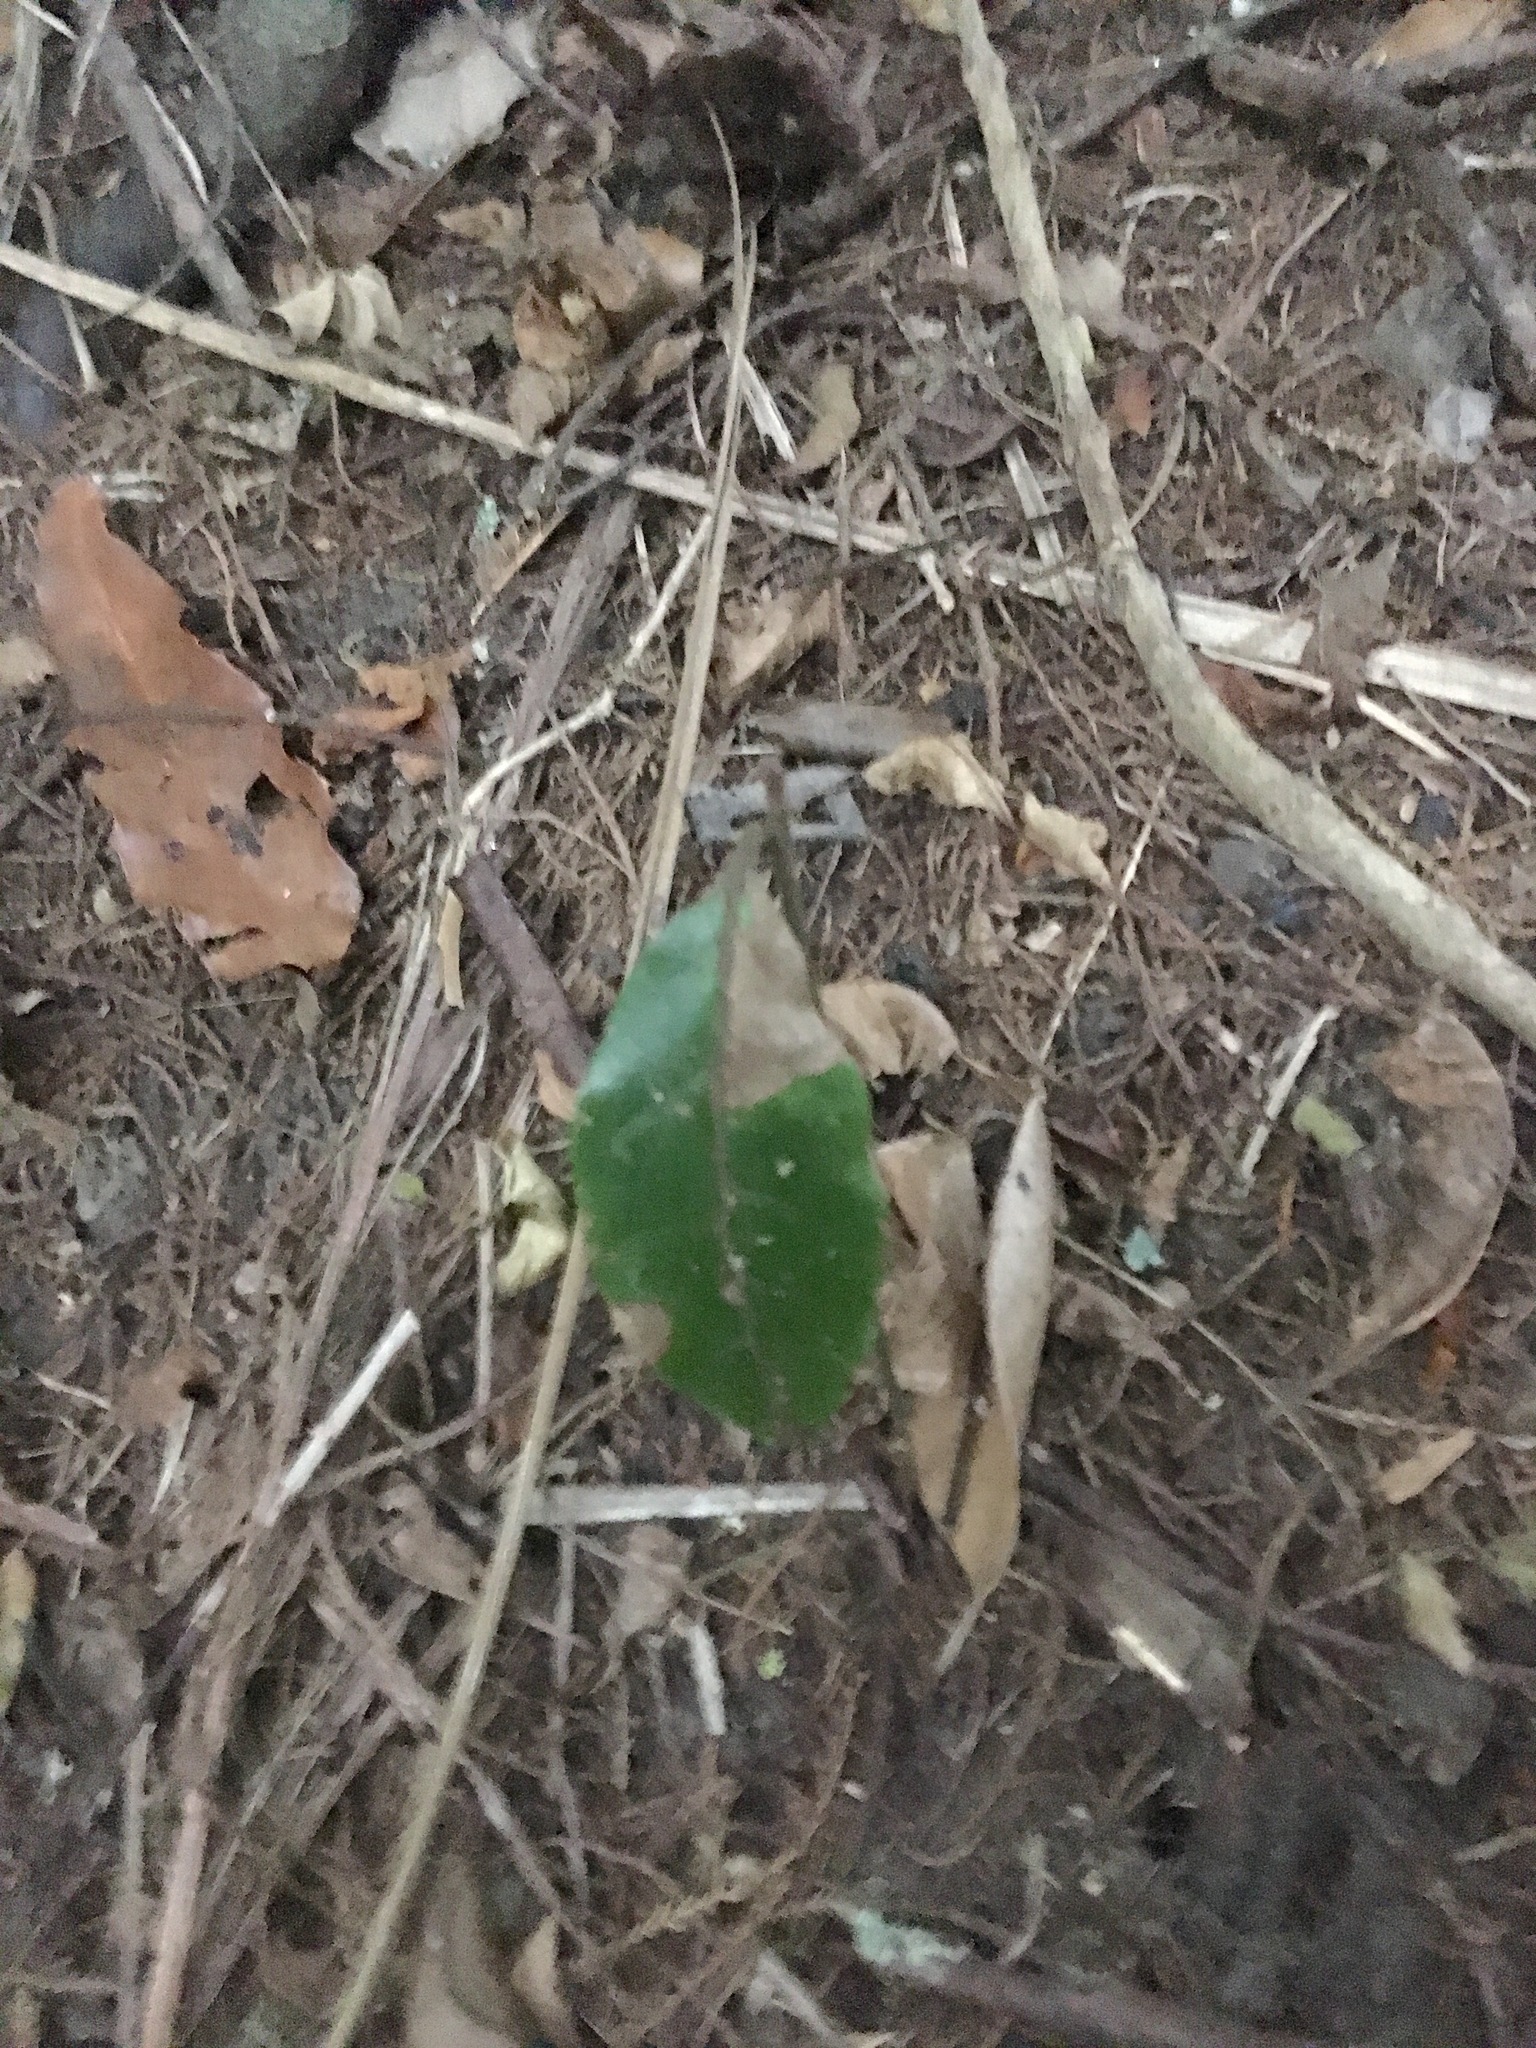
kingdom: Plantae
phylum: Tracheophyta
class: Magnoliopsida
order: Laurales
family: Monimiaceae
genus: Hedycarya
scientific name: Hedycarya arborea
